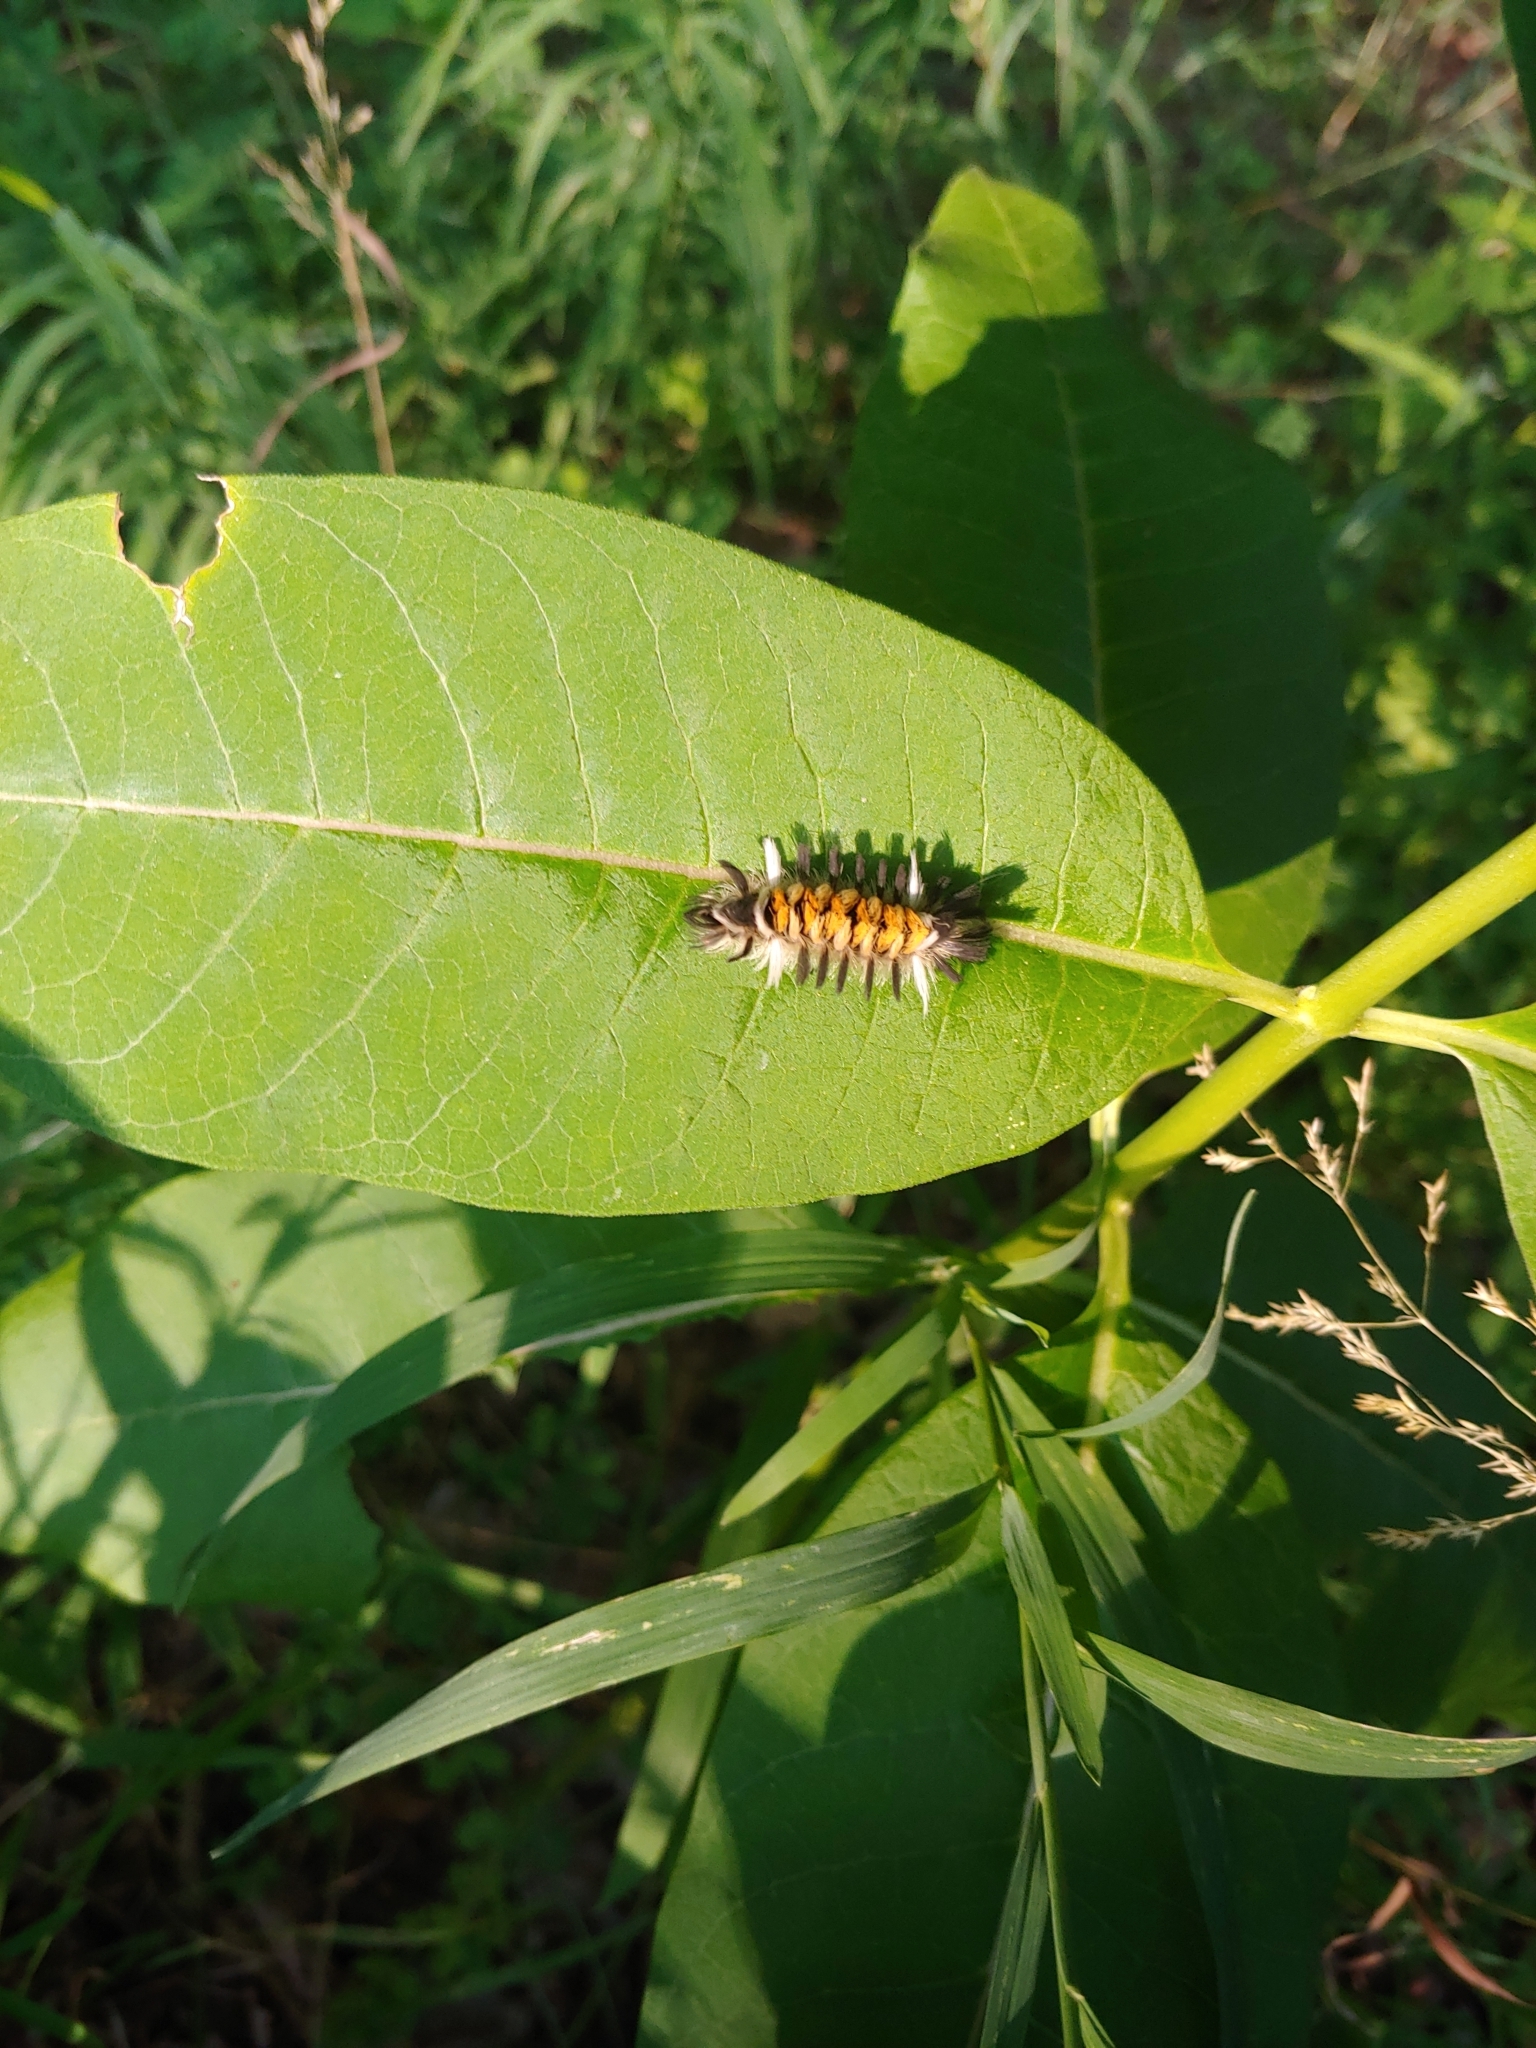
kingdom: Animalia
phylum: Arthropoda
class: Insecta
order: Lepidoptera
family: Erebidae
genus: Euchaetes
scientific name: Euchaetes egle
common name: Milkweed tussock moth
